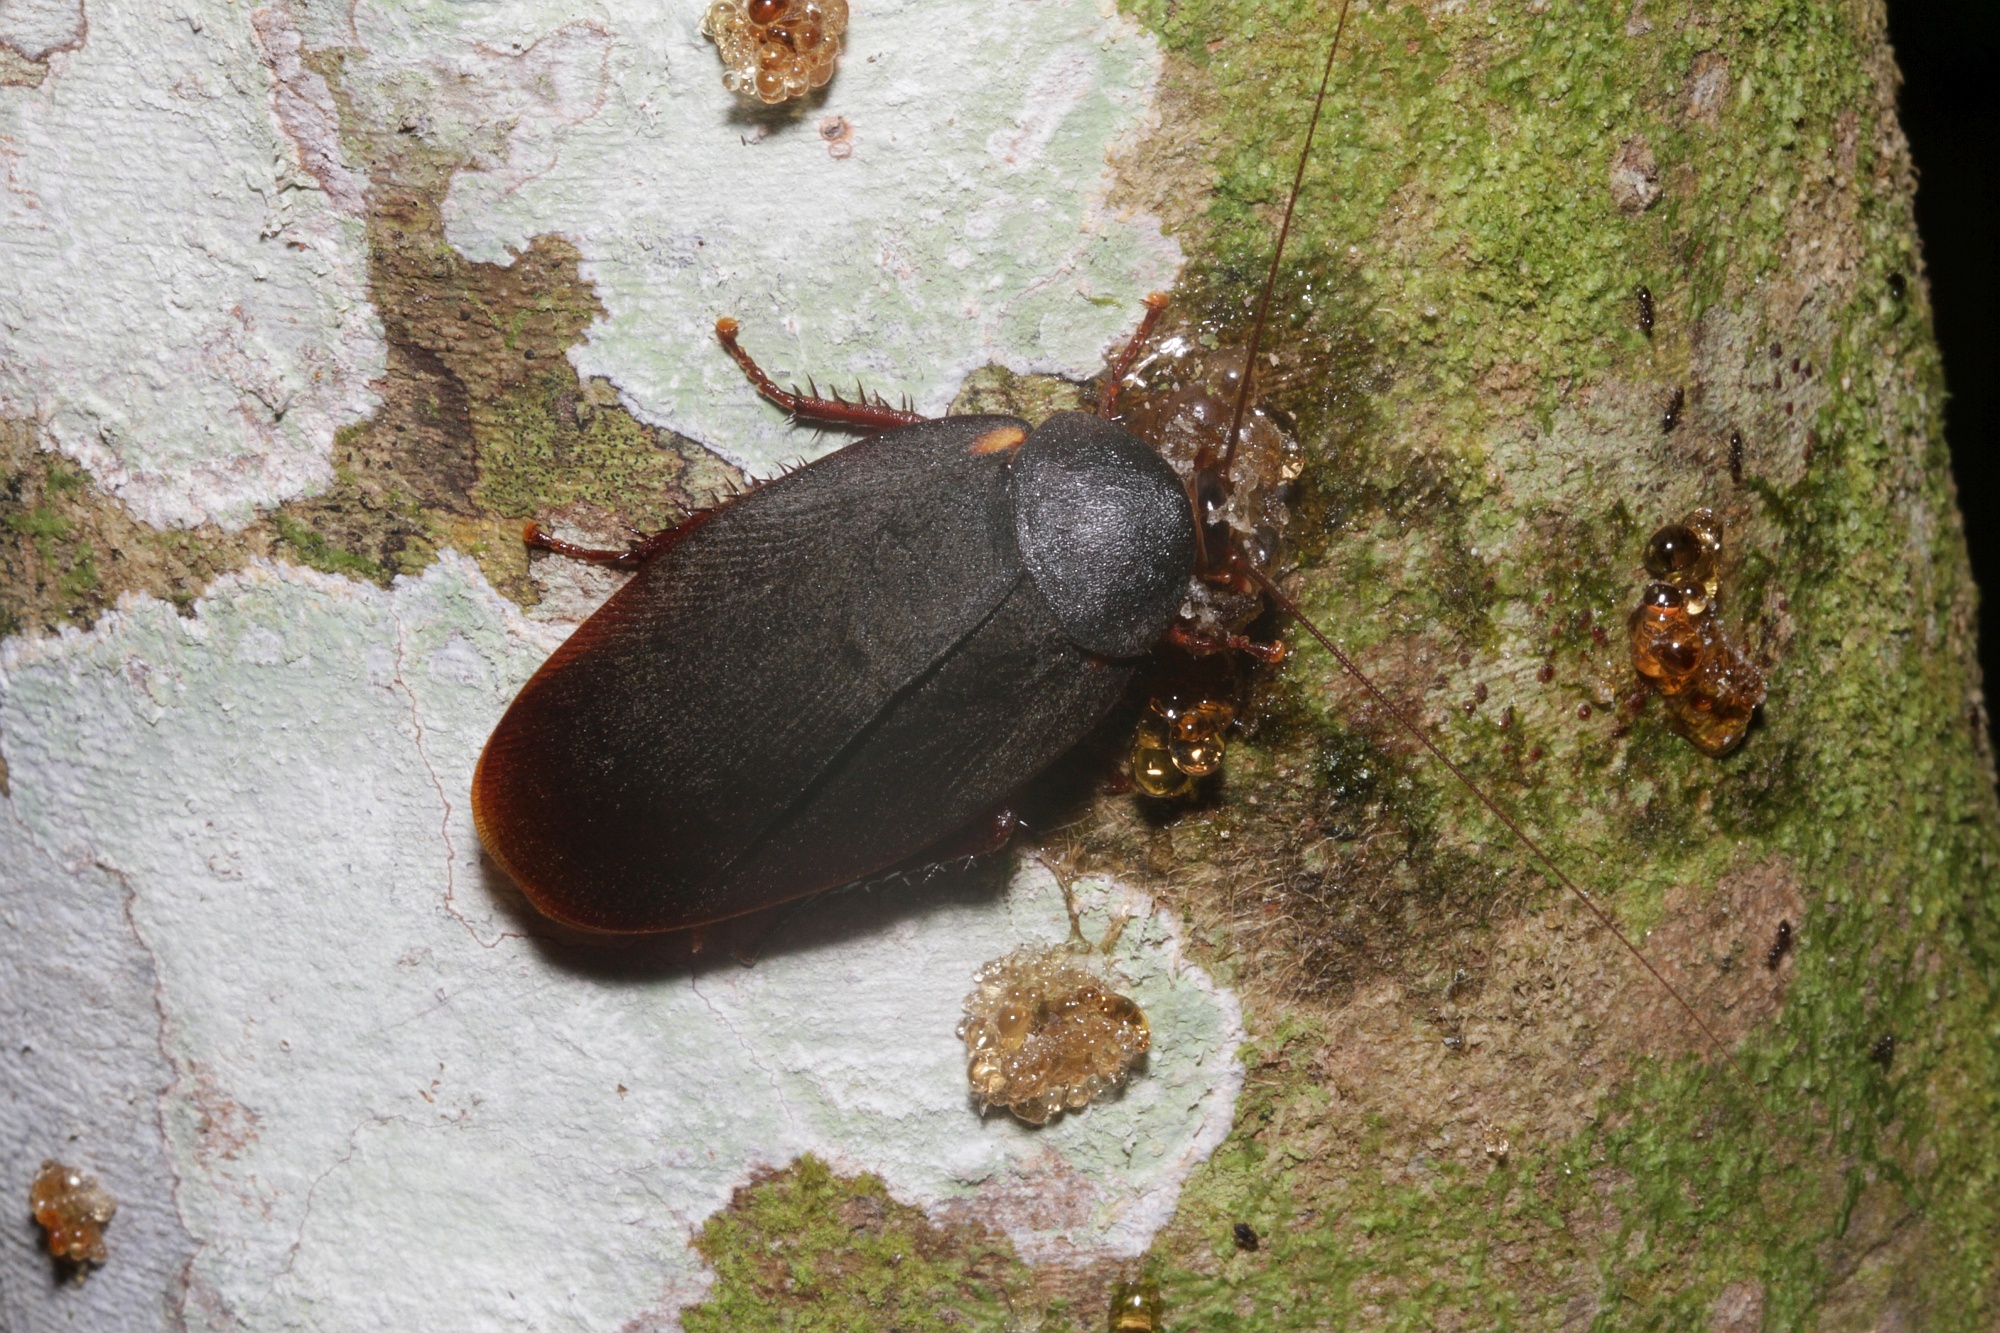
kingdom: Animalia
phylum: Arthropoda
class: Insecta
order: Blattodea
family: Ectobiidae
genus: Nyctibora
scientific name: Nyctibora humeralis
